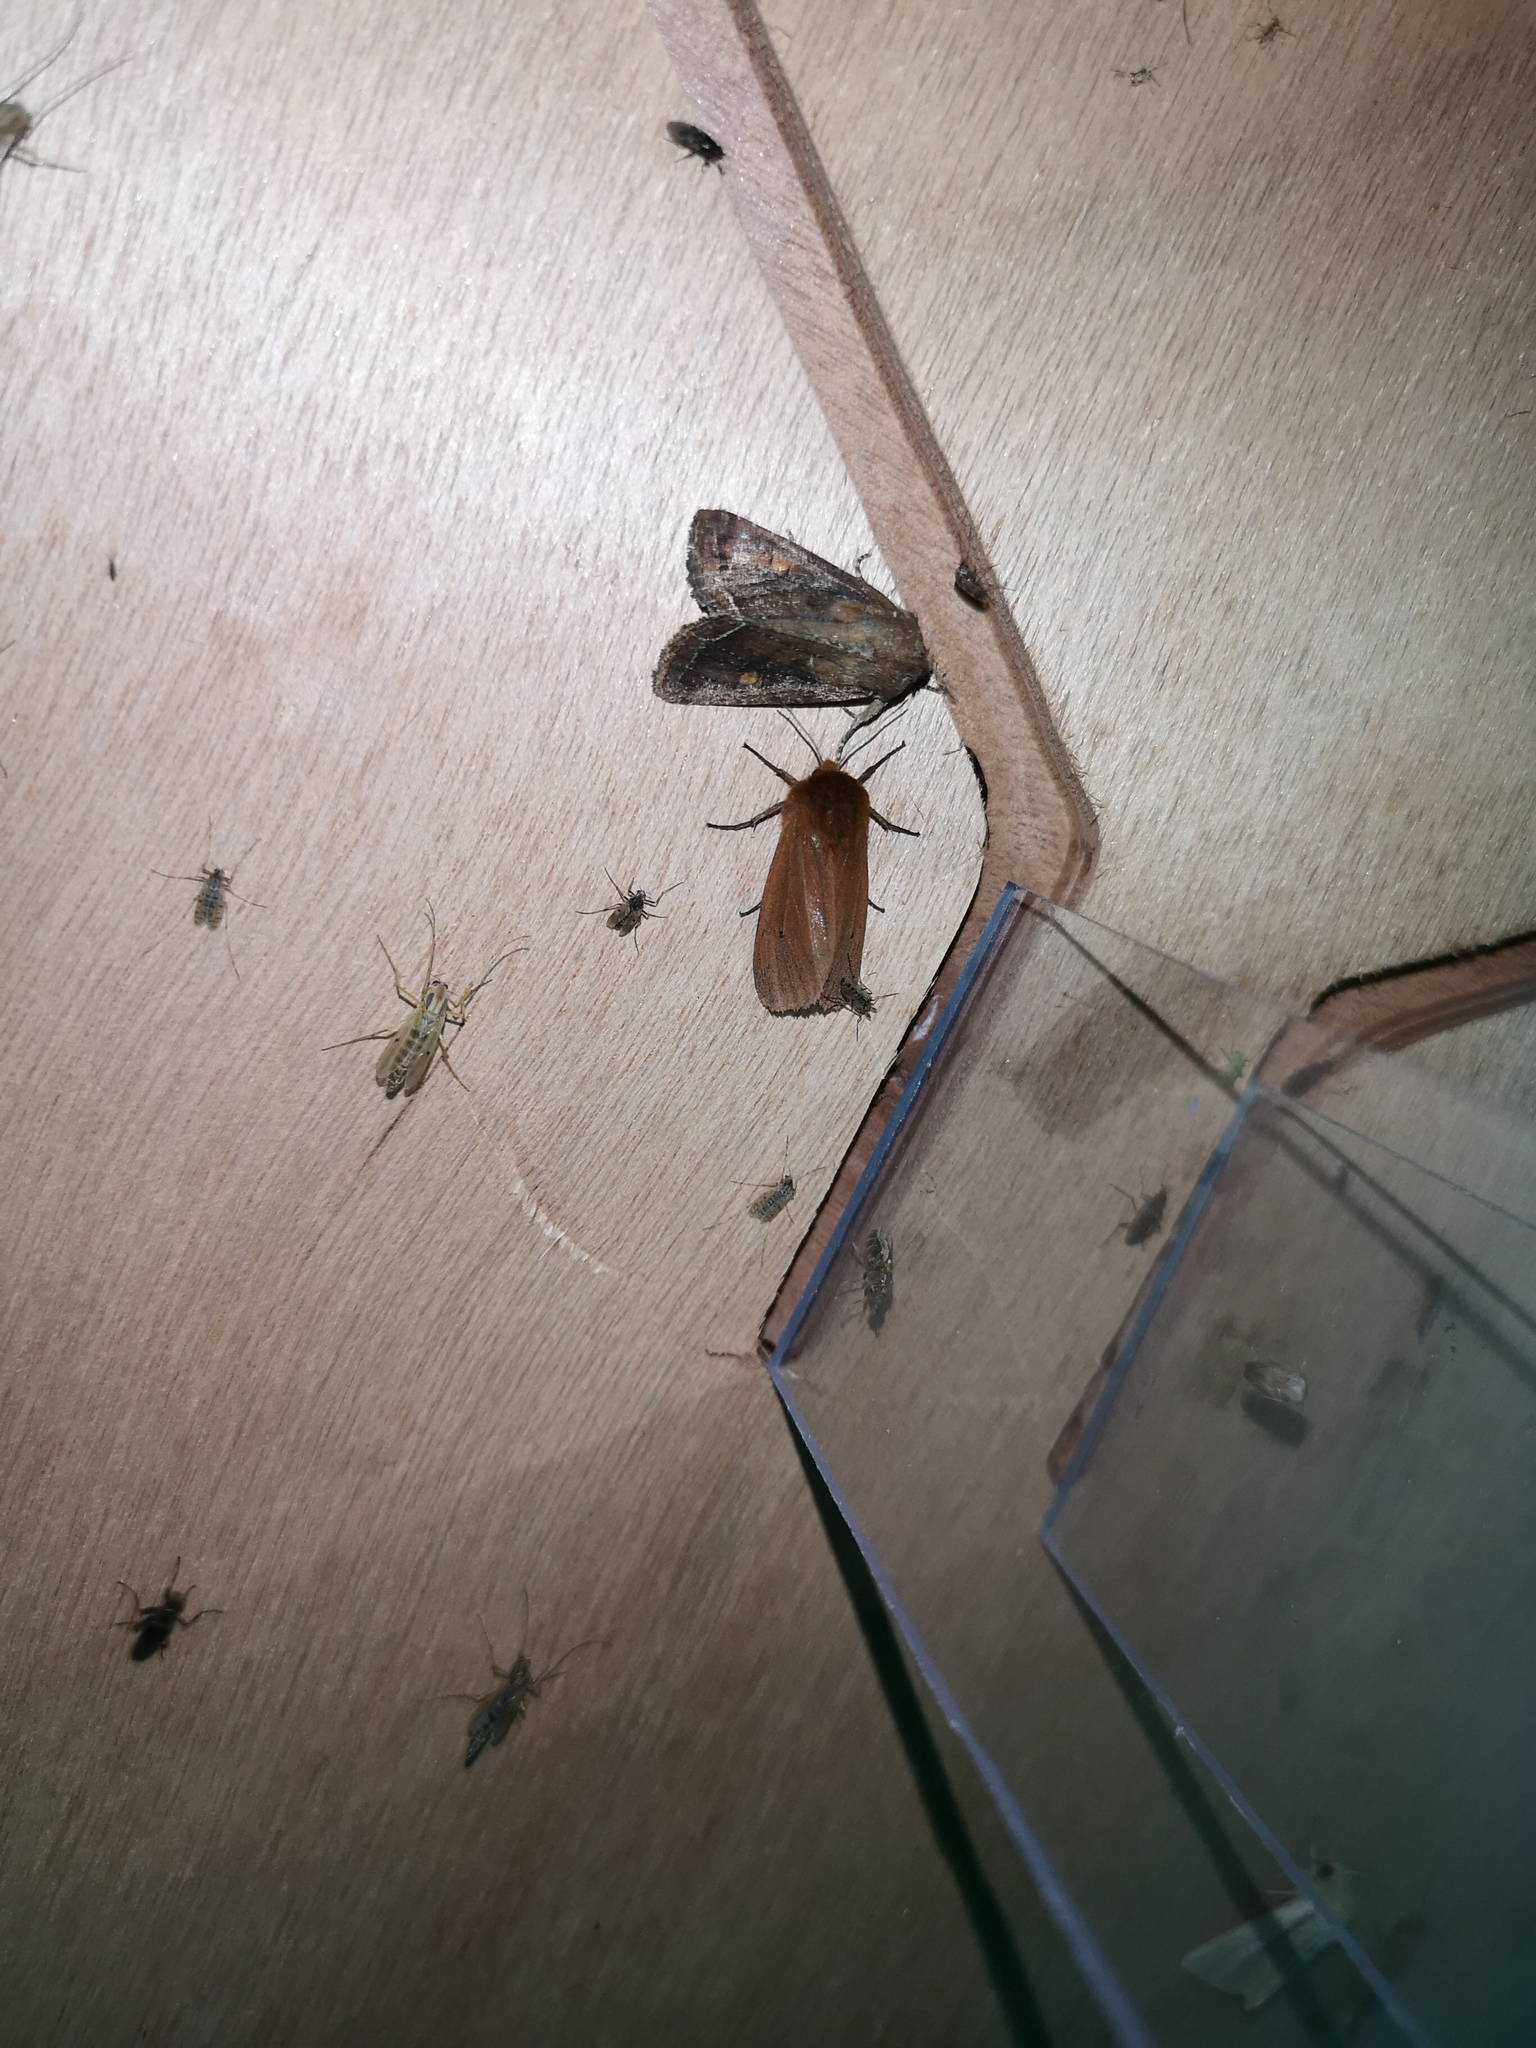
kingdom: Animalia
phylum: Arthropoda
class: Insecta
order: Lepidoptera
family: Erebidae
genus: Phragmatobia
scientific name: Phragmatobia fuliginosa
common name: Ruby tiger
